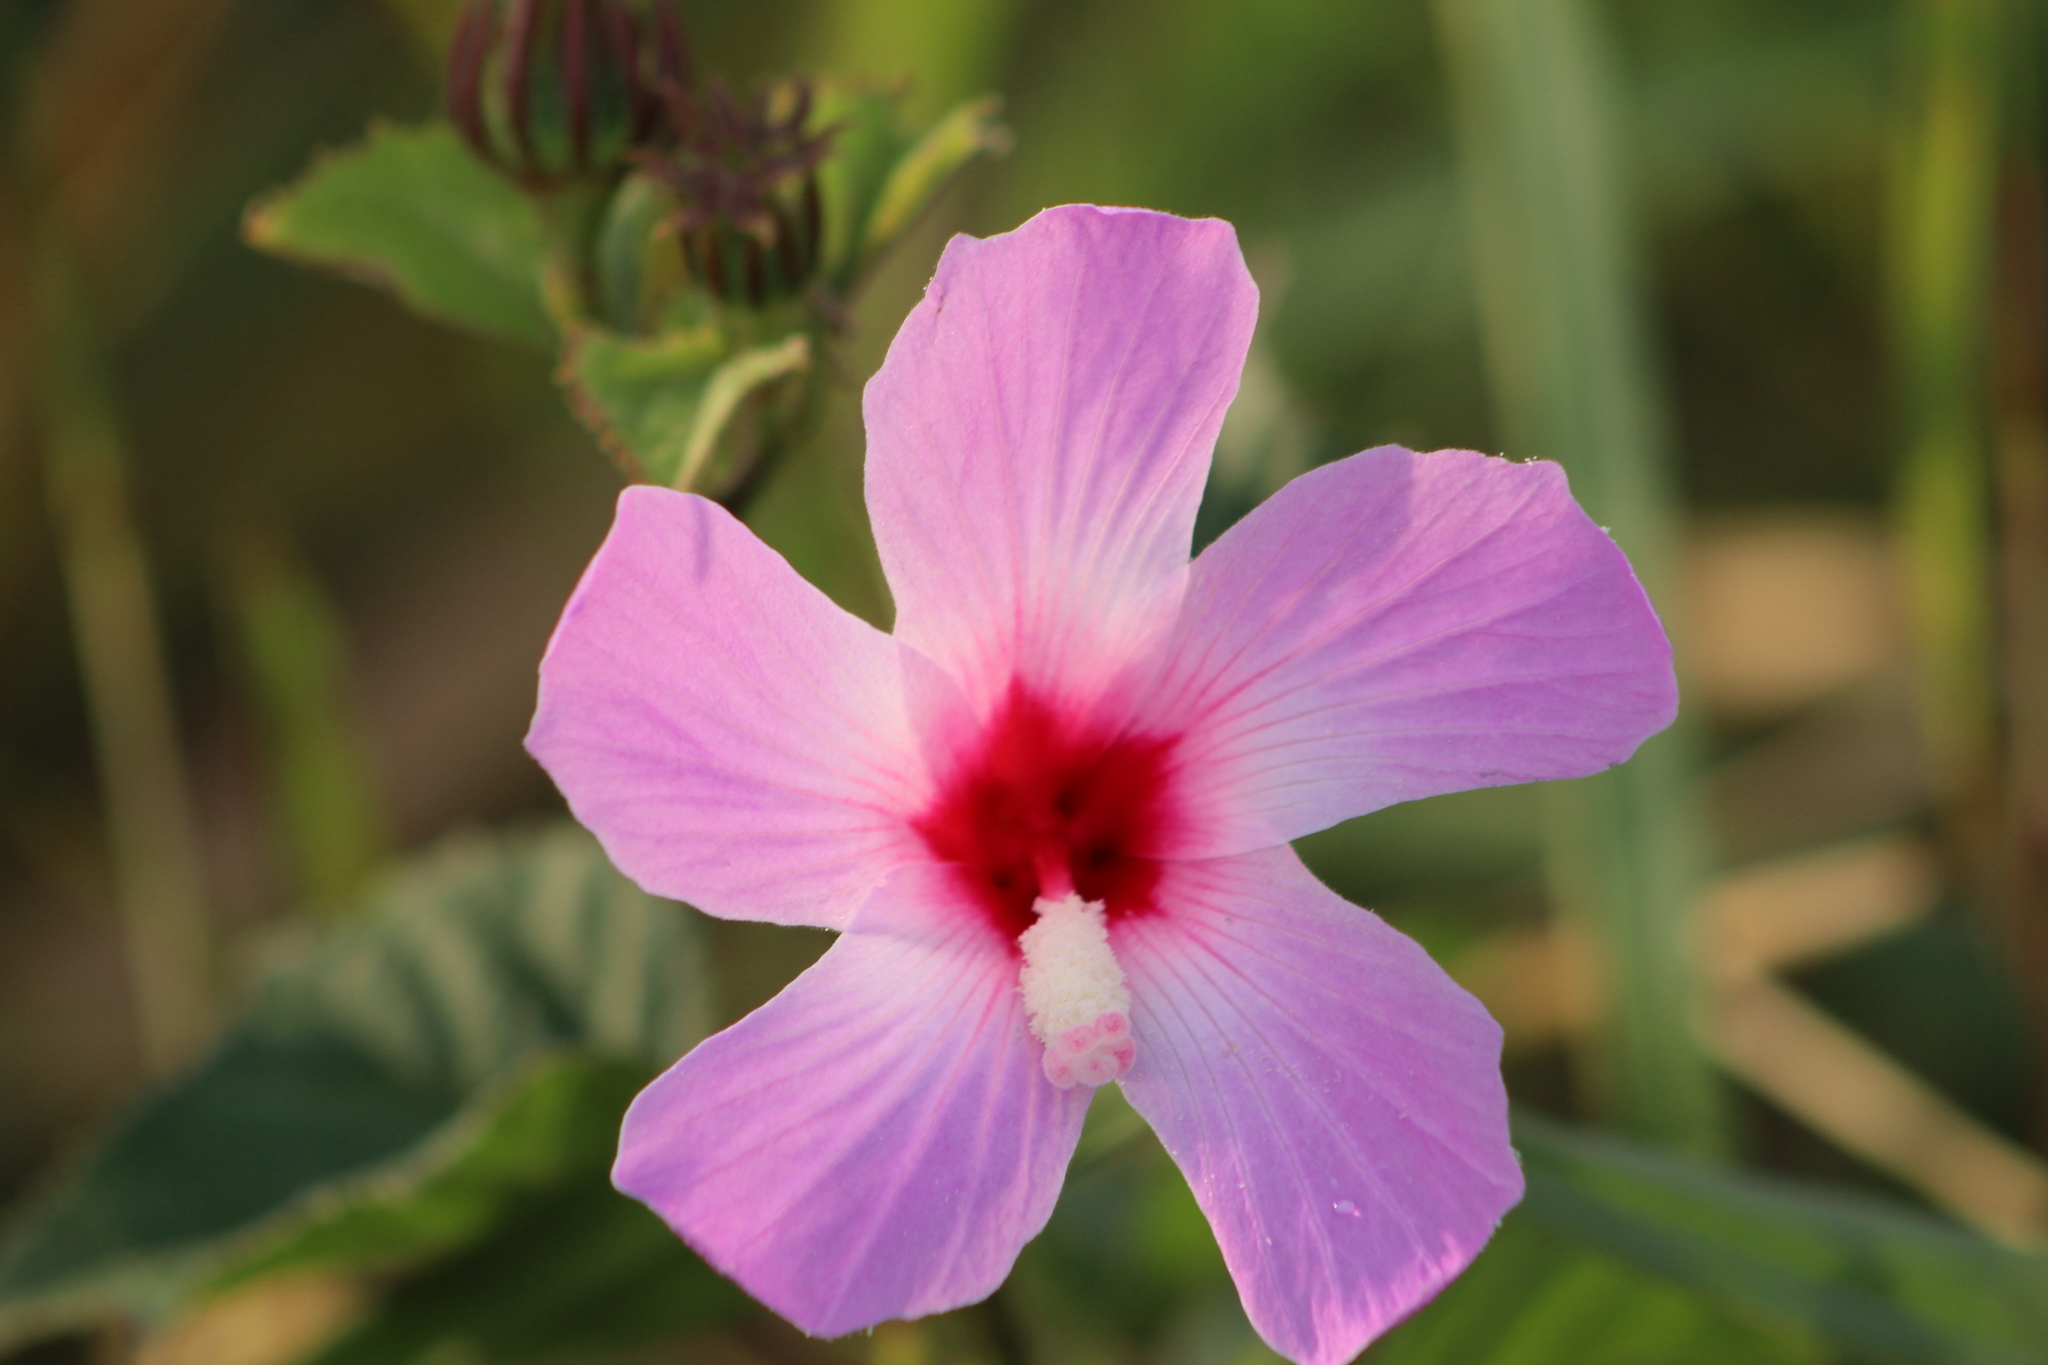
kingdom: Plantae
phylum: Tracheophyta
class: Magnoliopsida
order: Malvales
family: Malvaceae
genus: Hibiscus
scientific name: Hibiscus costatus
